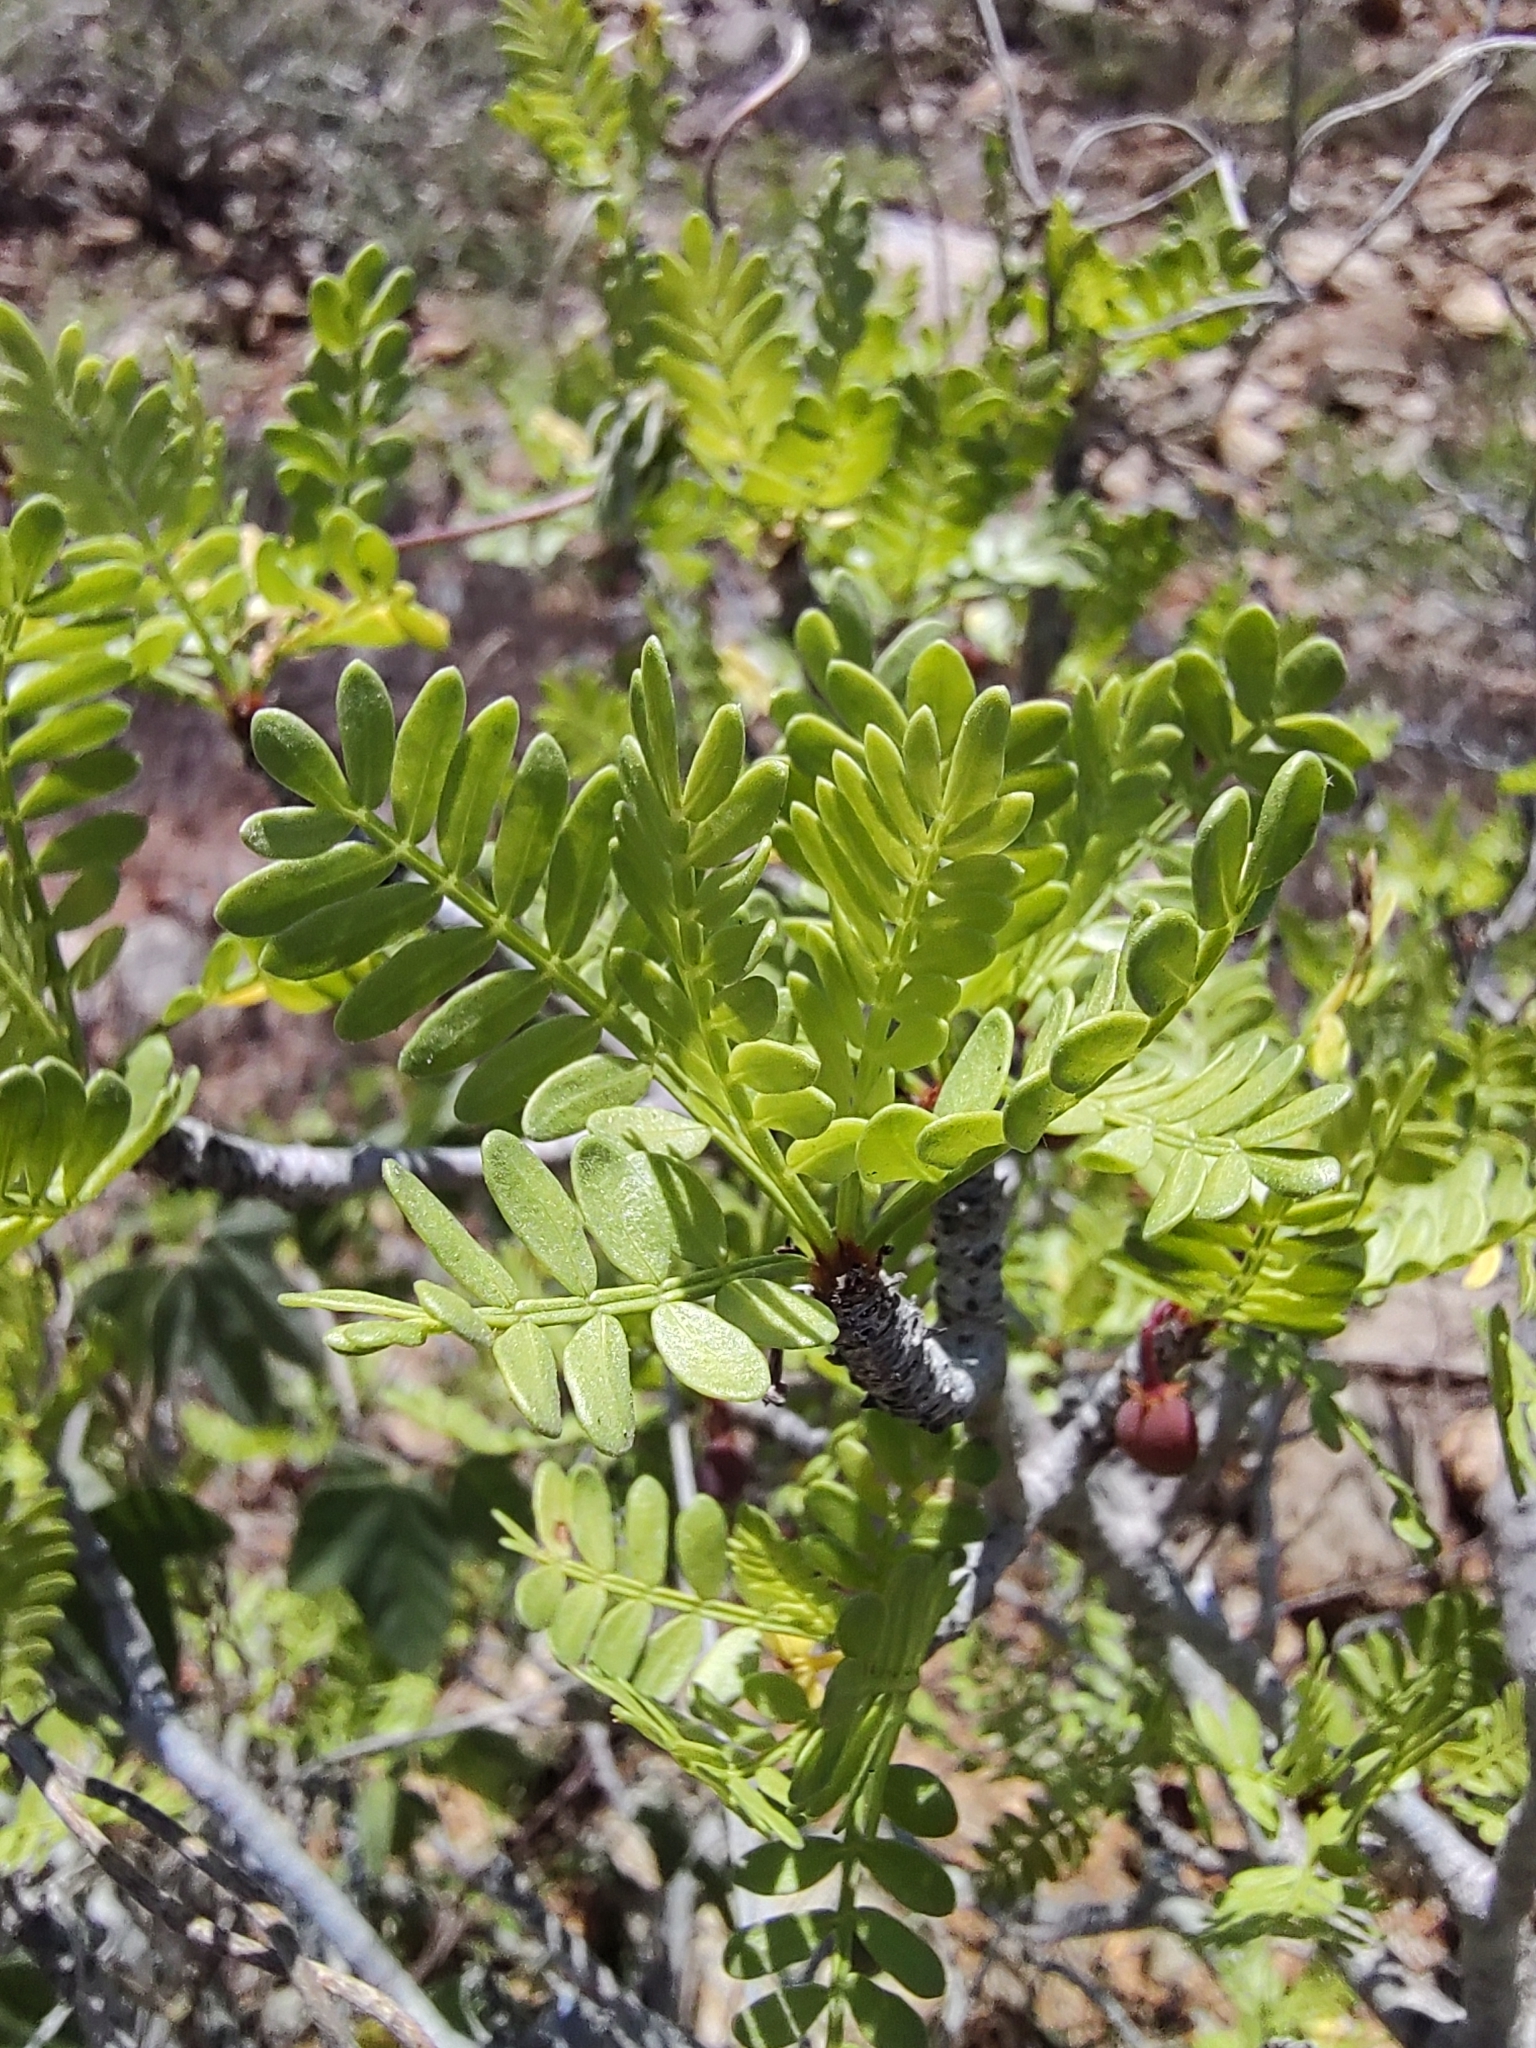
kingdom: Plantae
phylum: Tracheophyta
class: Magnoliopsida
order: Sapindales
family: Burseraceae
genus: Bursera
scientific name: Bursera microphylla
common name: Elephant tree
